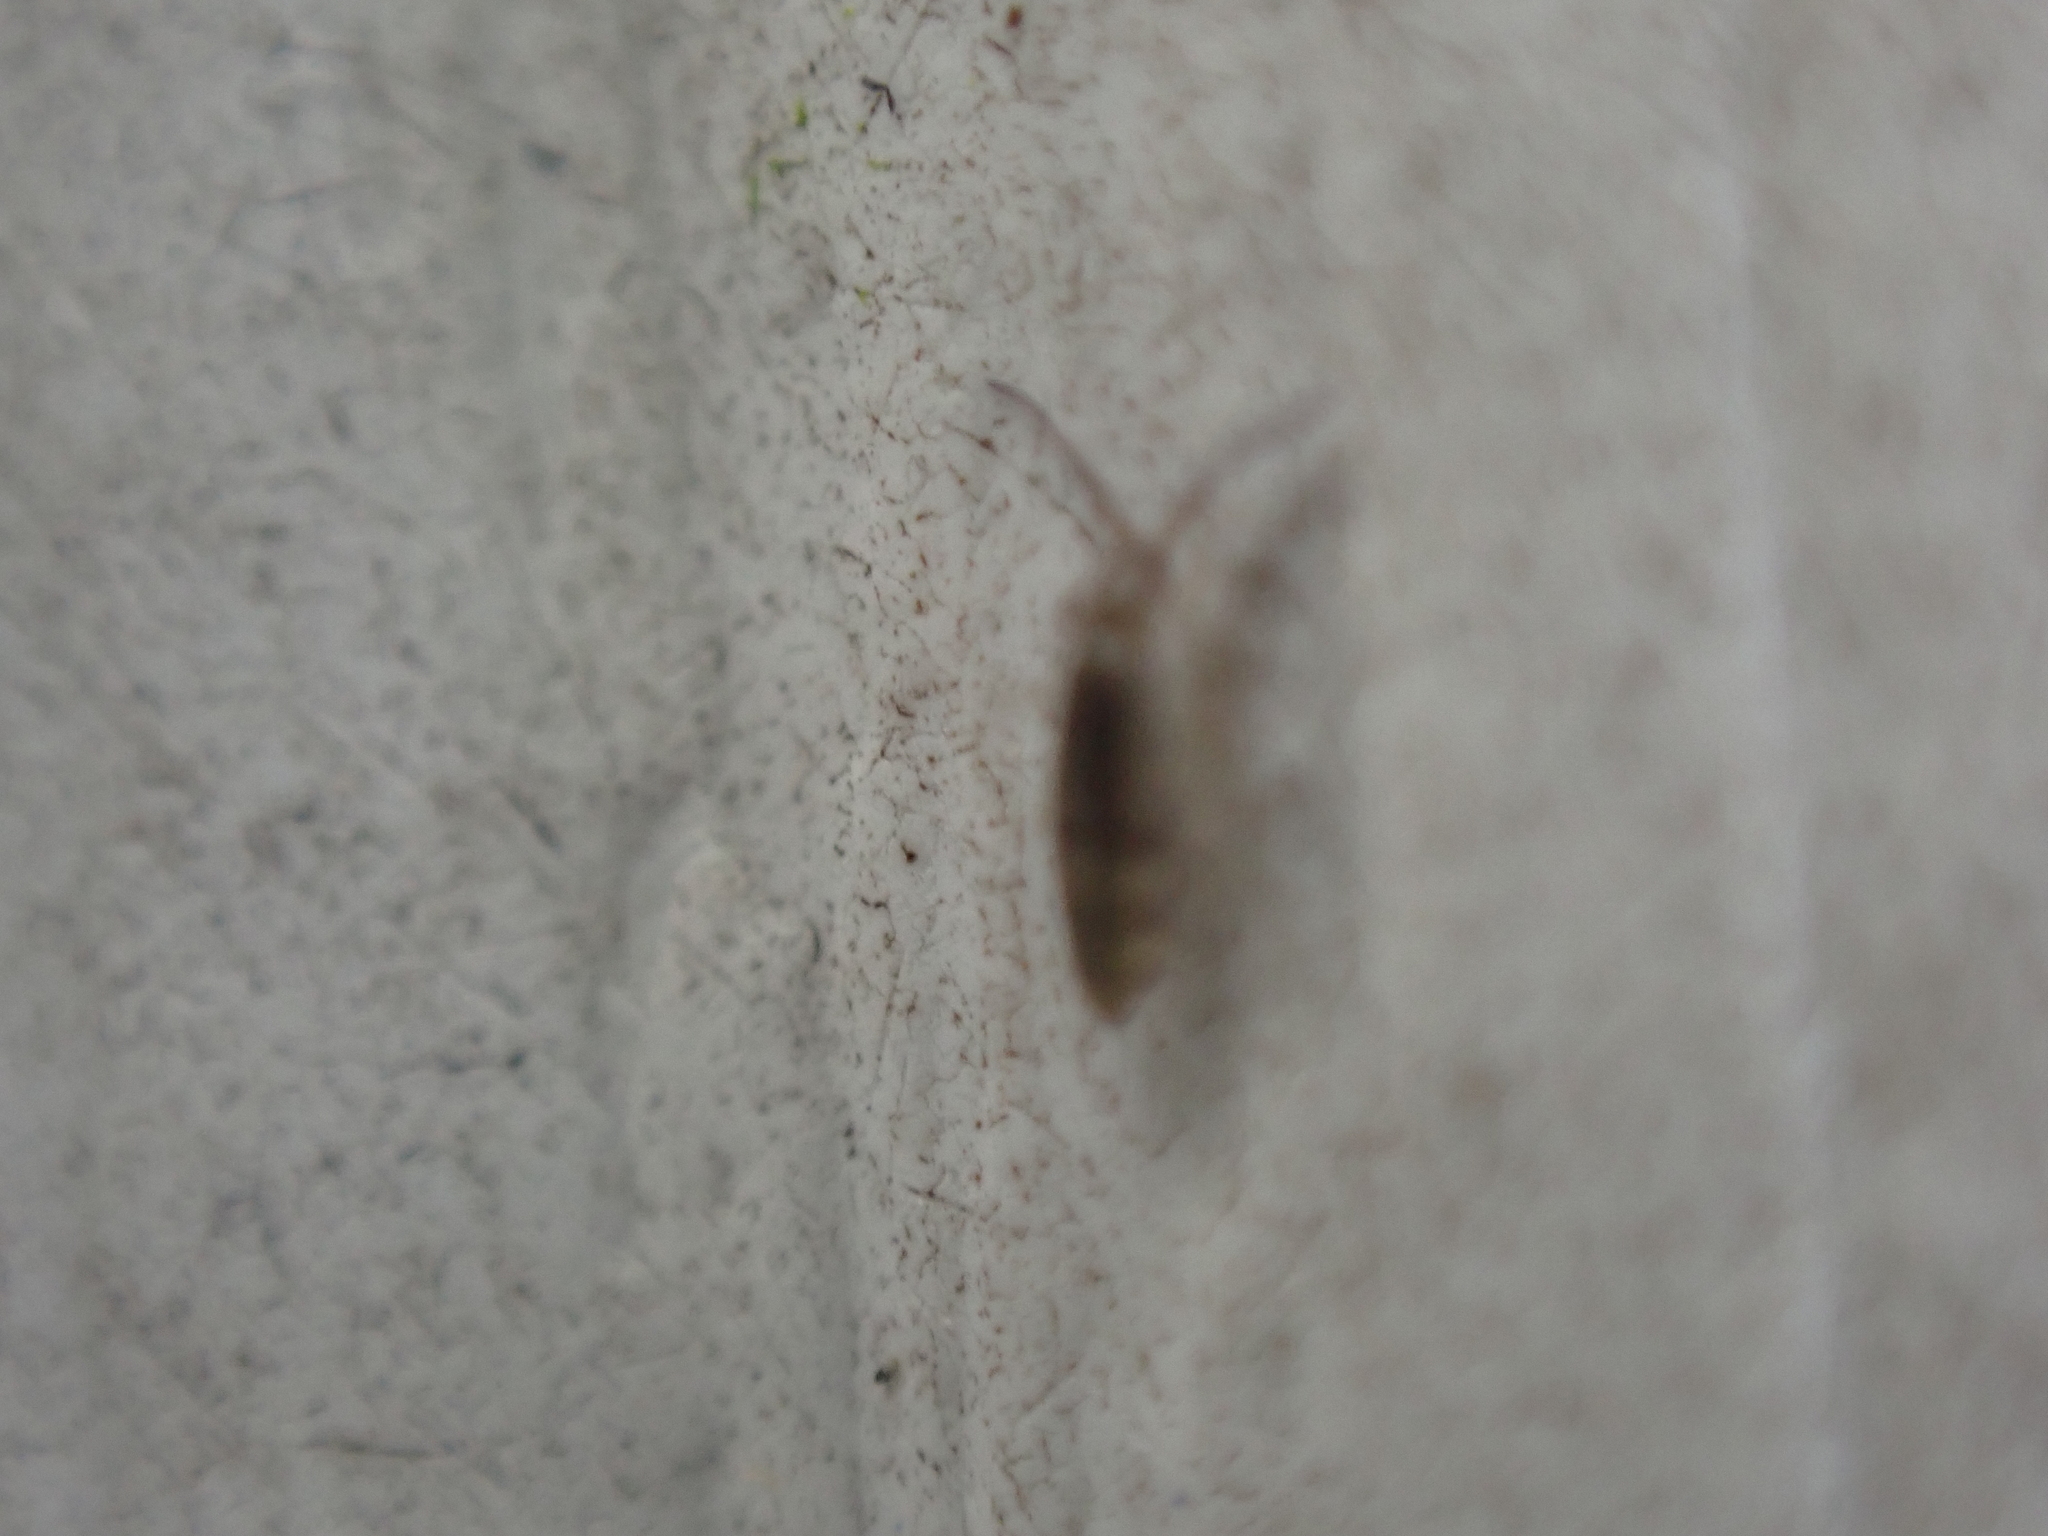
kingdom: Animalia
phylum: Arthropoda
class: Collembola
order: Entomobryomorpha
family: Entomobryidae
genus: Willowsia
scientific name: Willowsia nigromaculata
